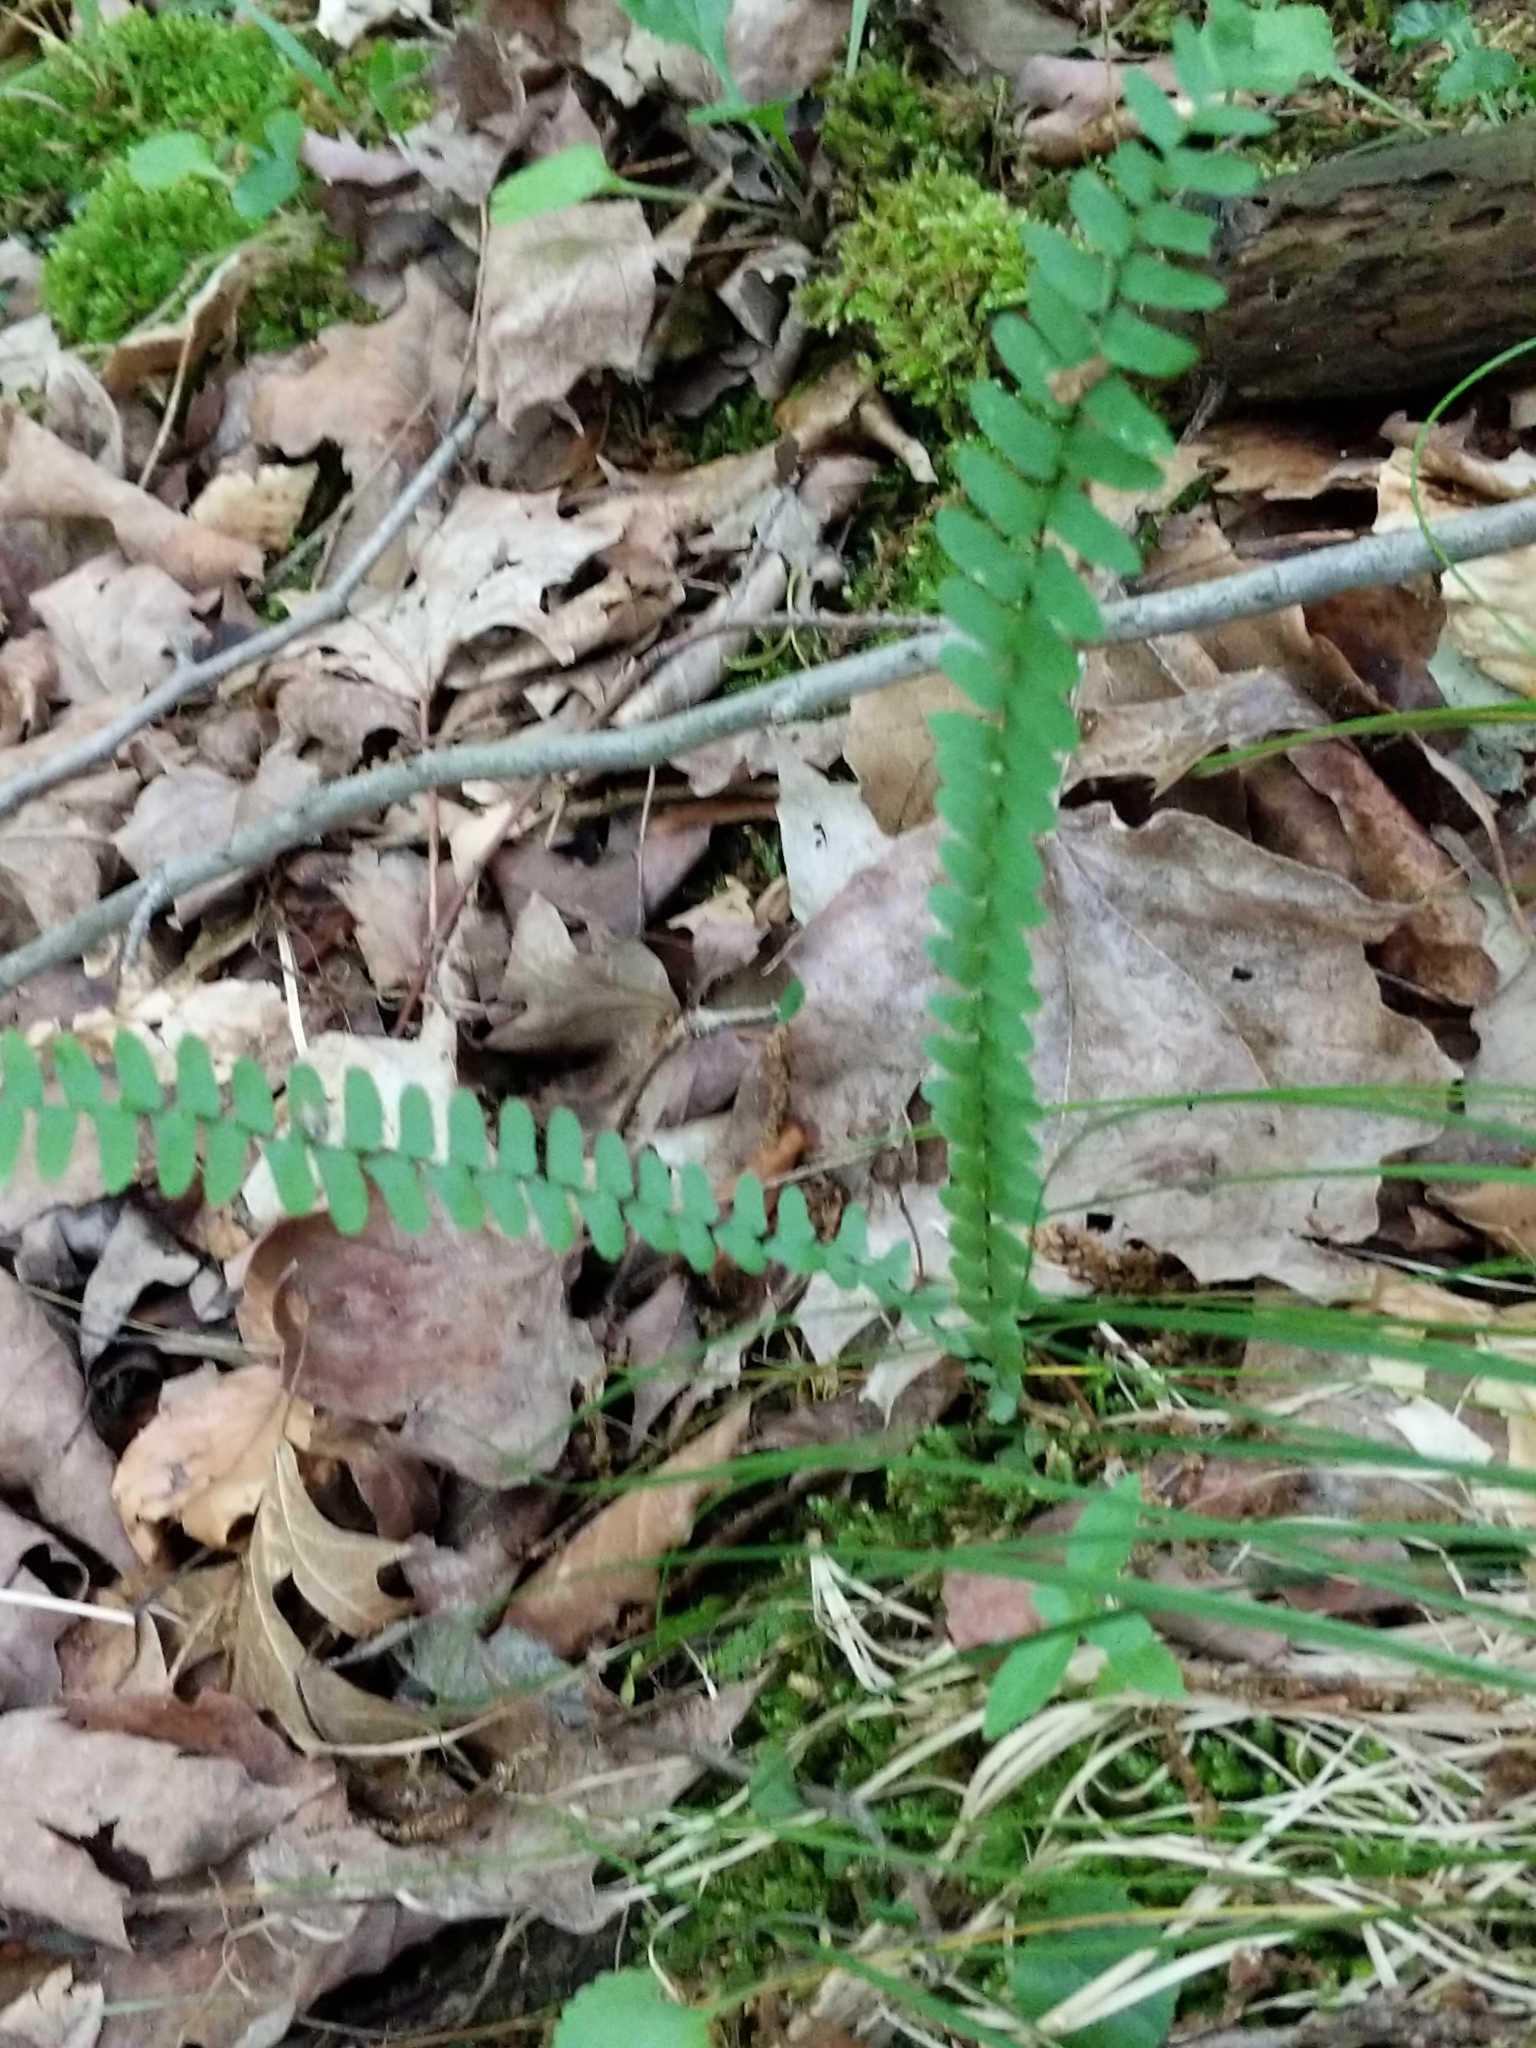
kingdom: Plantae
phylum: Tracheophyta
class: Polypodiopsida
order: Polypodiales
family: Aspleniaceae
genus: Asplenium
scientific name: Asplenium platyneuron
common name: Ebony spleenwort
